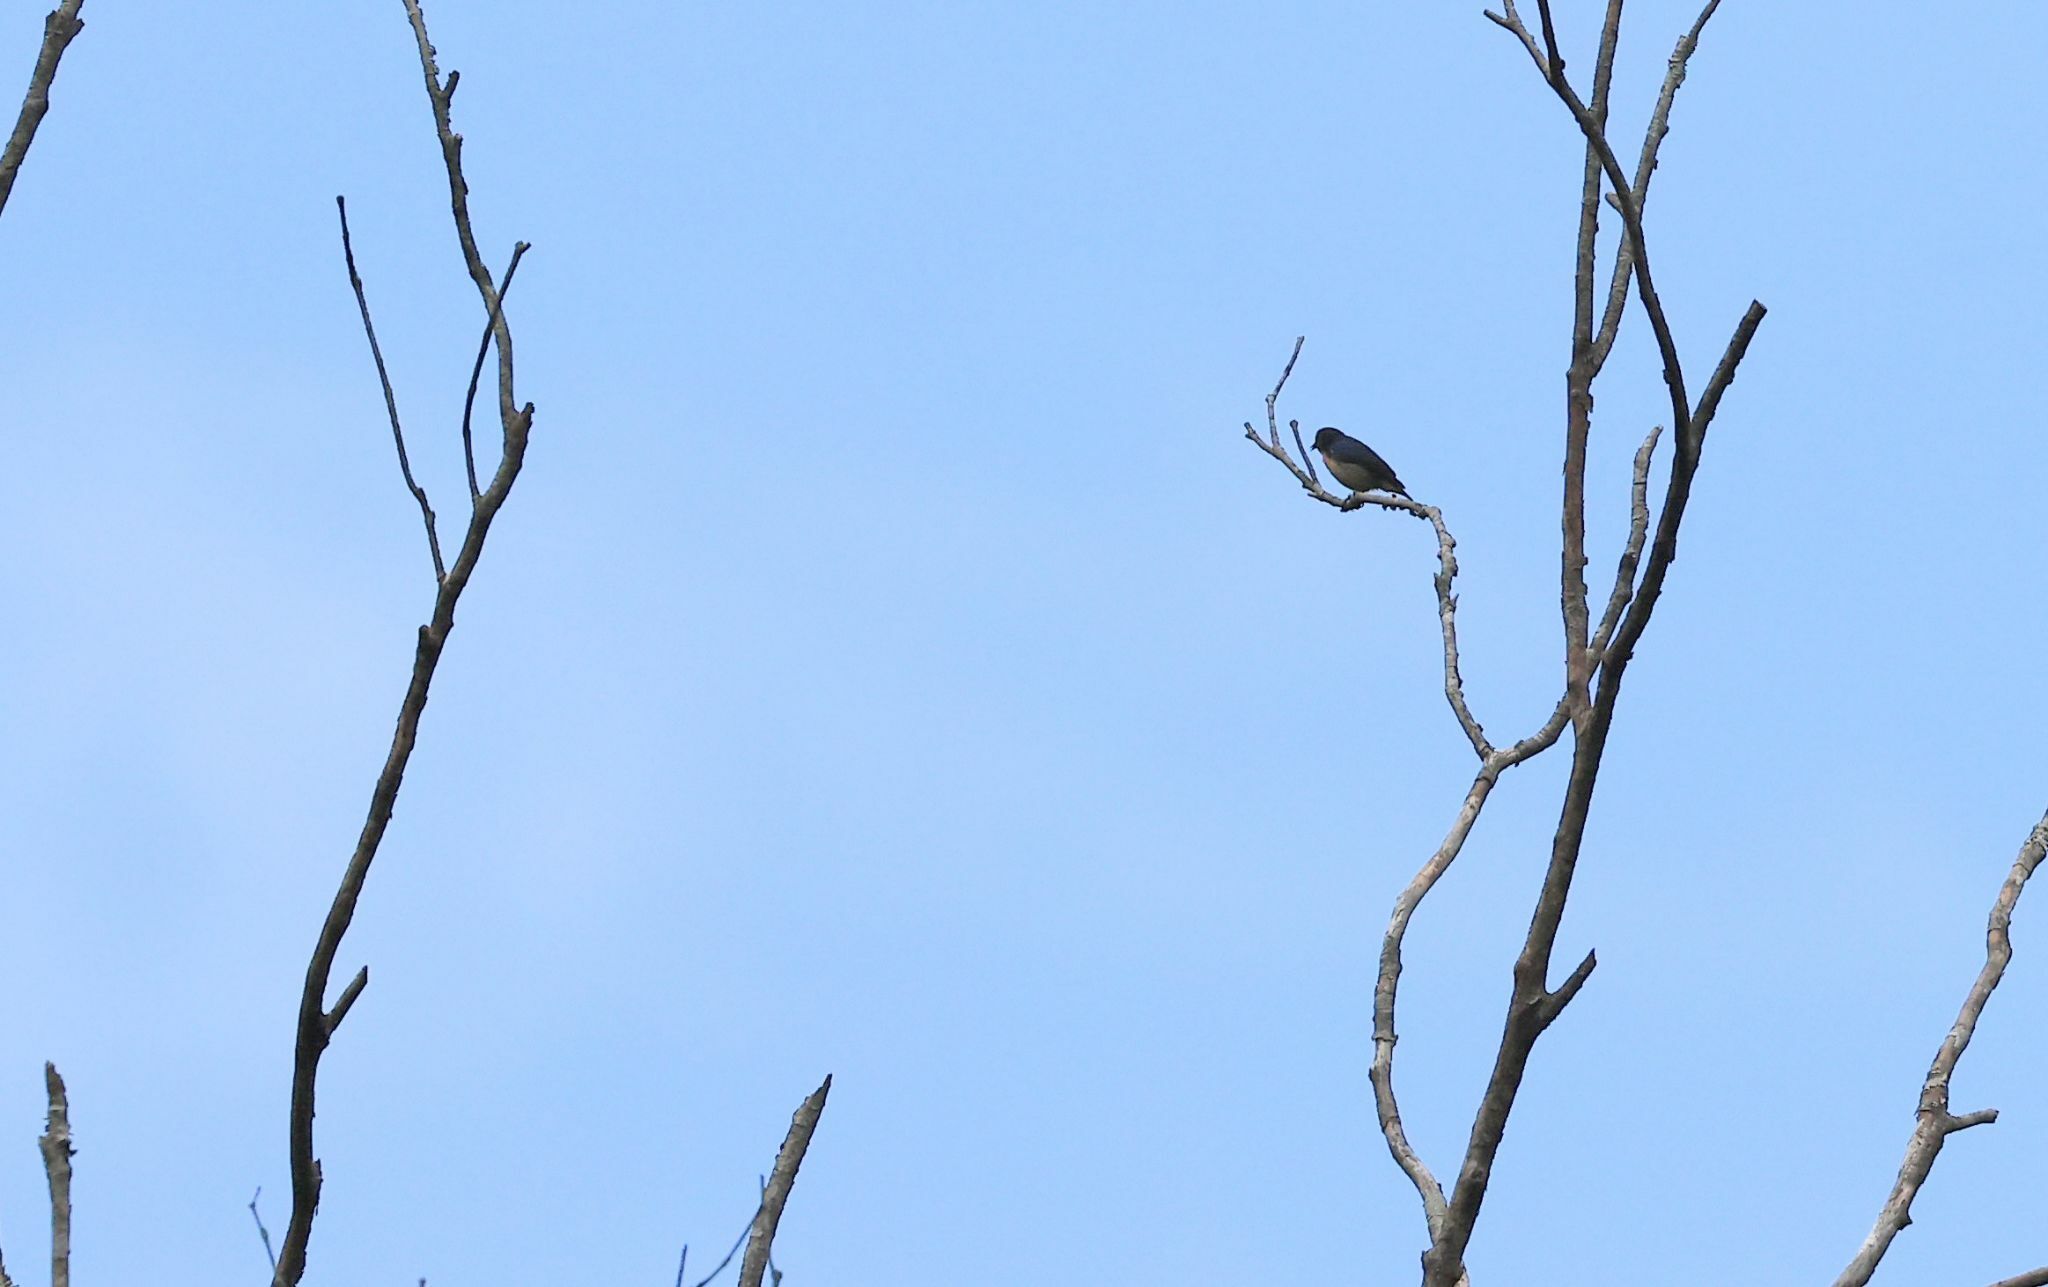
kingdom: Animalia
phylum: Chordata
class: Aves
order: Passeriformes
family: Dicaeidae
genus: Dicaeum
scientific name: Dicaeum ignipectus
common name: Fire-breasted flowerpecker
